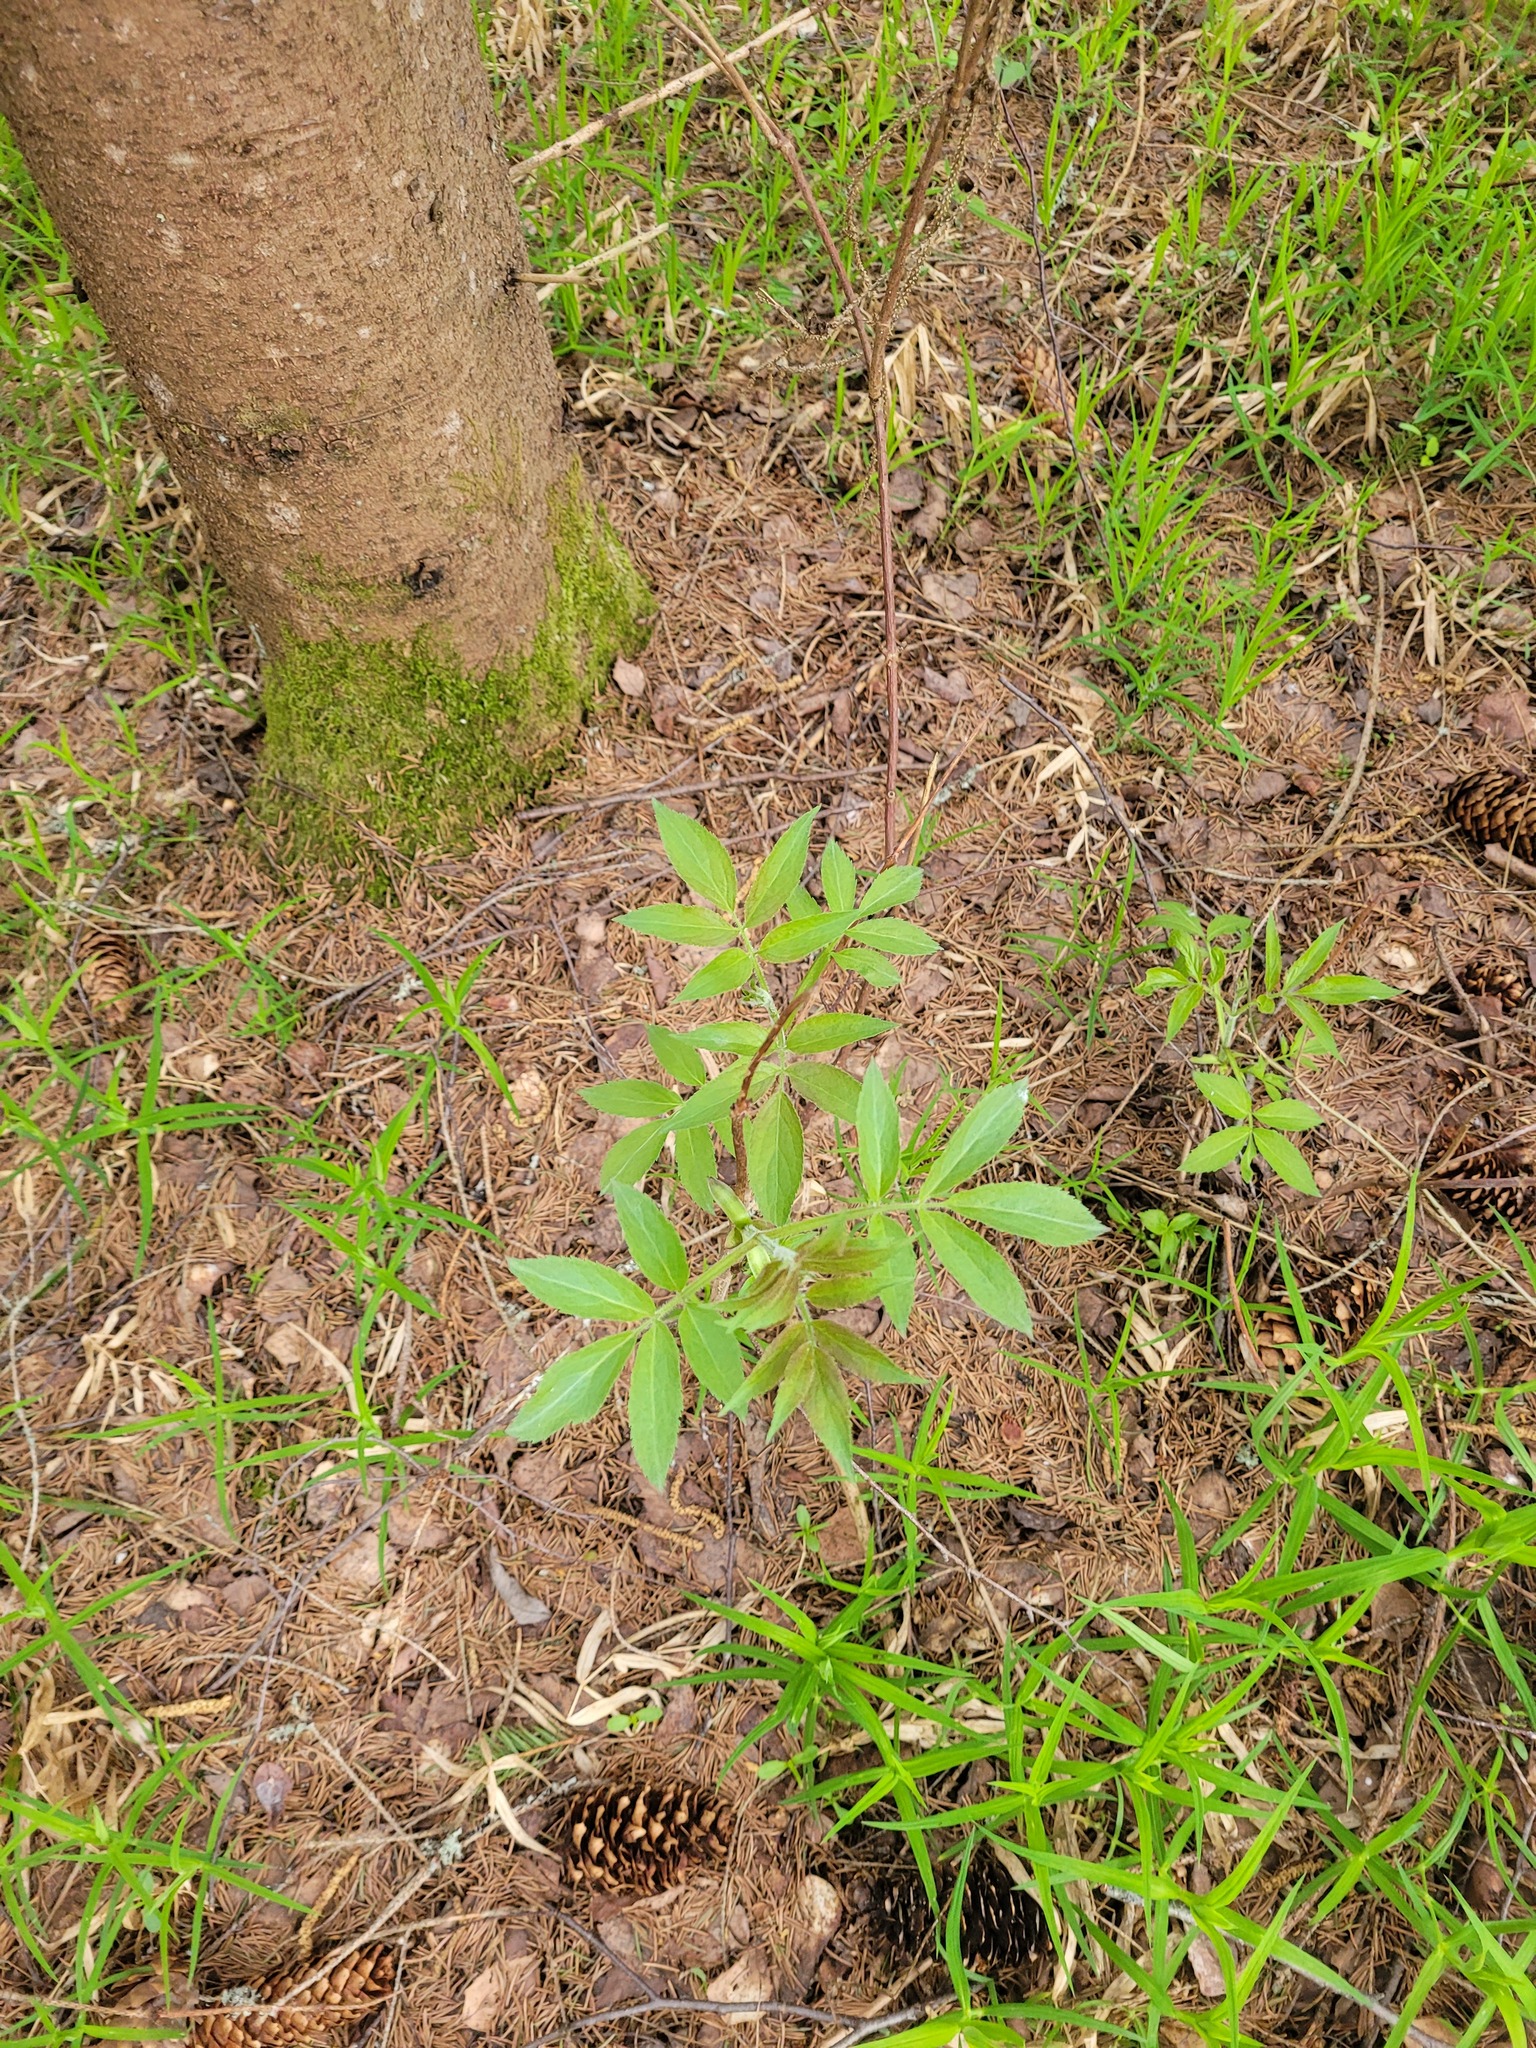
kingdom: Plantae
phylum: Tracheophyta
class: Magnoliopsida
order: Dipsacales
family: Viburnaceae
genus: Sambucus
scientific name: Sambucus racemosa
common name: Red-berried elder
